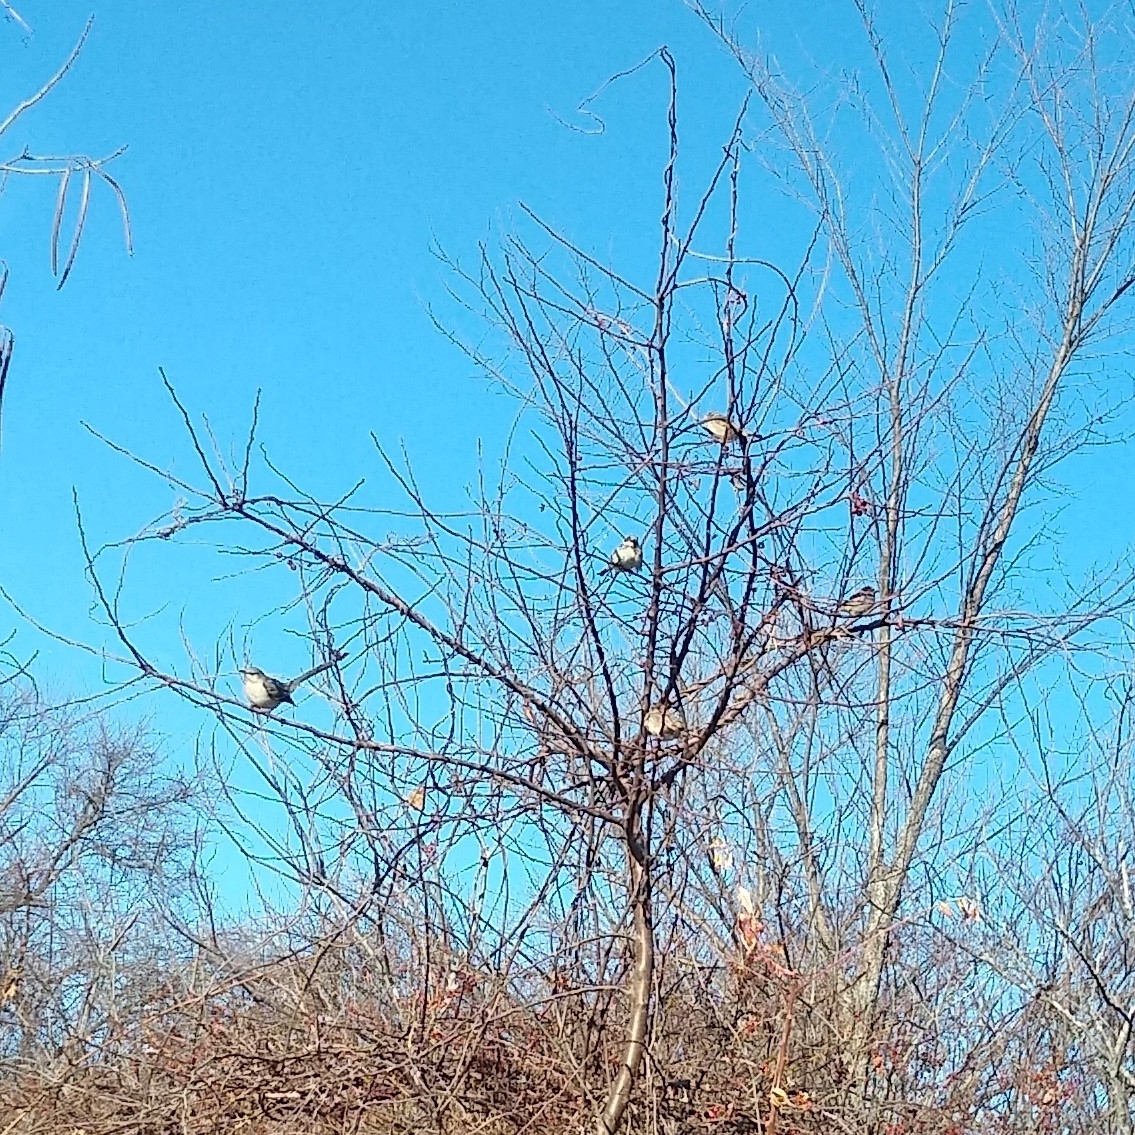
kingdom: Animalia
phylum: Chordata
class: Aves
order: Passeriformes
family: Passeridae
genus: Passer
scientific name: Passer domesticus
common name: House sparrow
